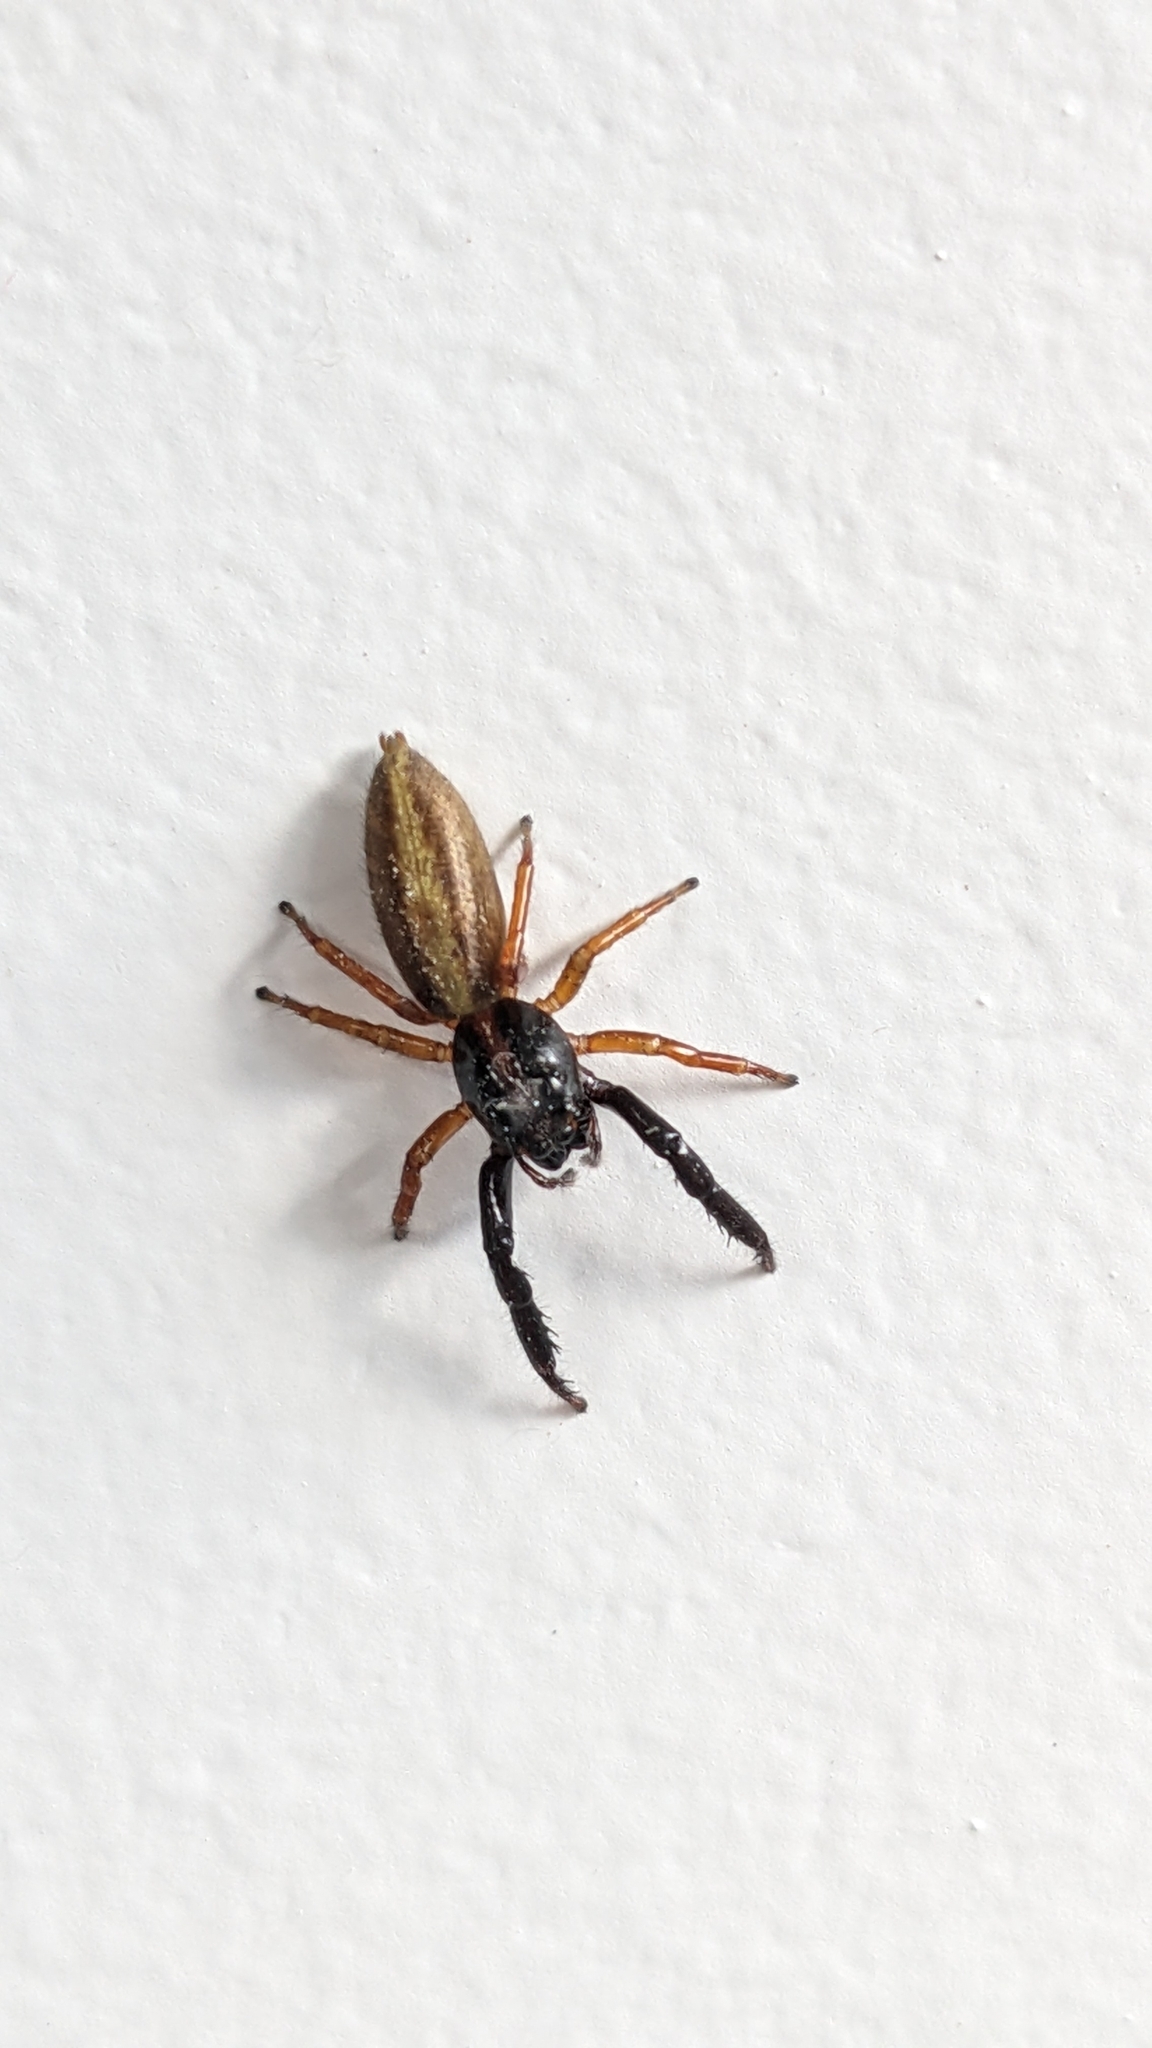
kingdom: Animalia
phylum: Arthropoda
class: Arachnida
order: Araneae
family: Salticidae
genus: Trite
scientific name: Trite planiceps
